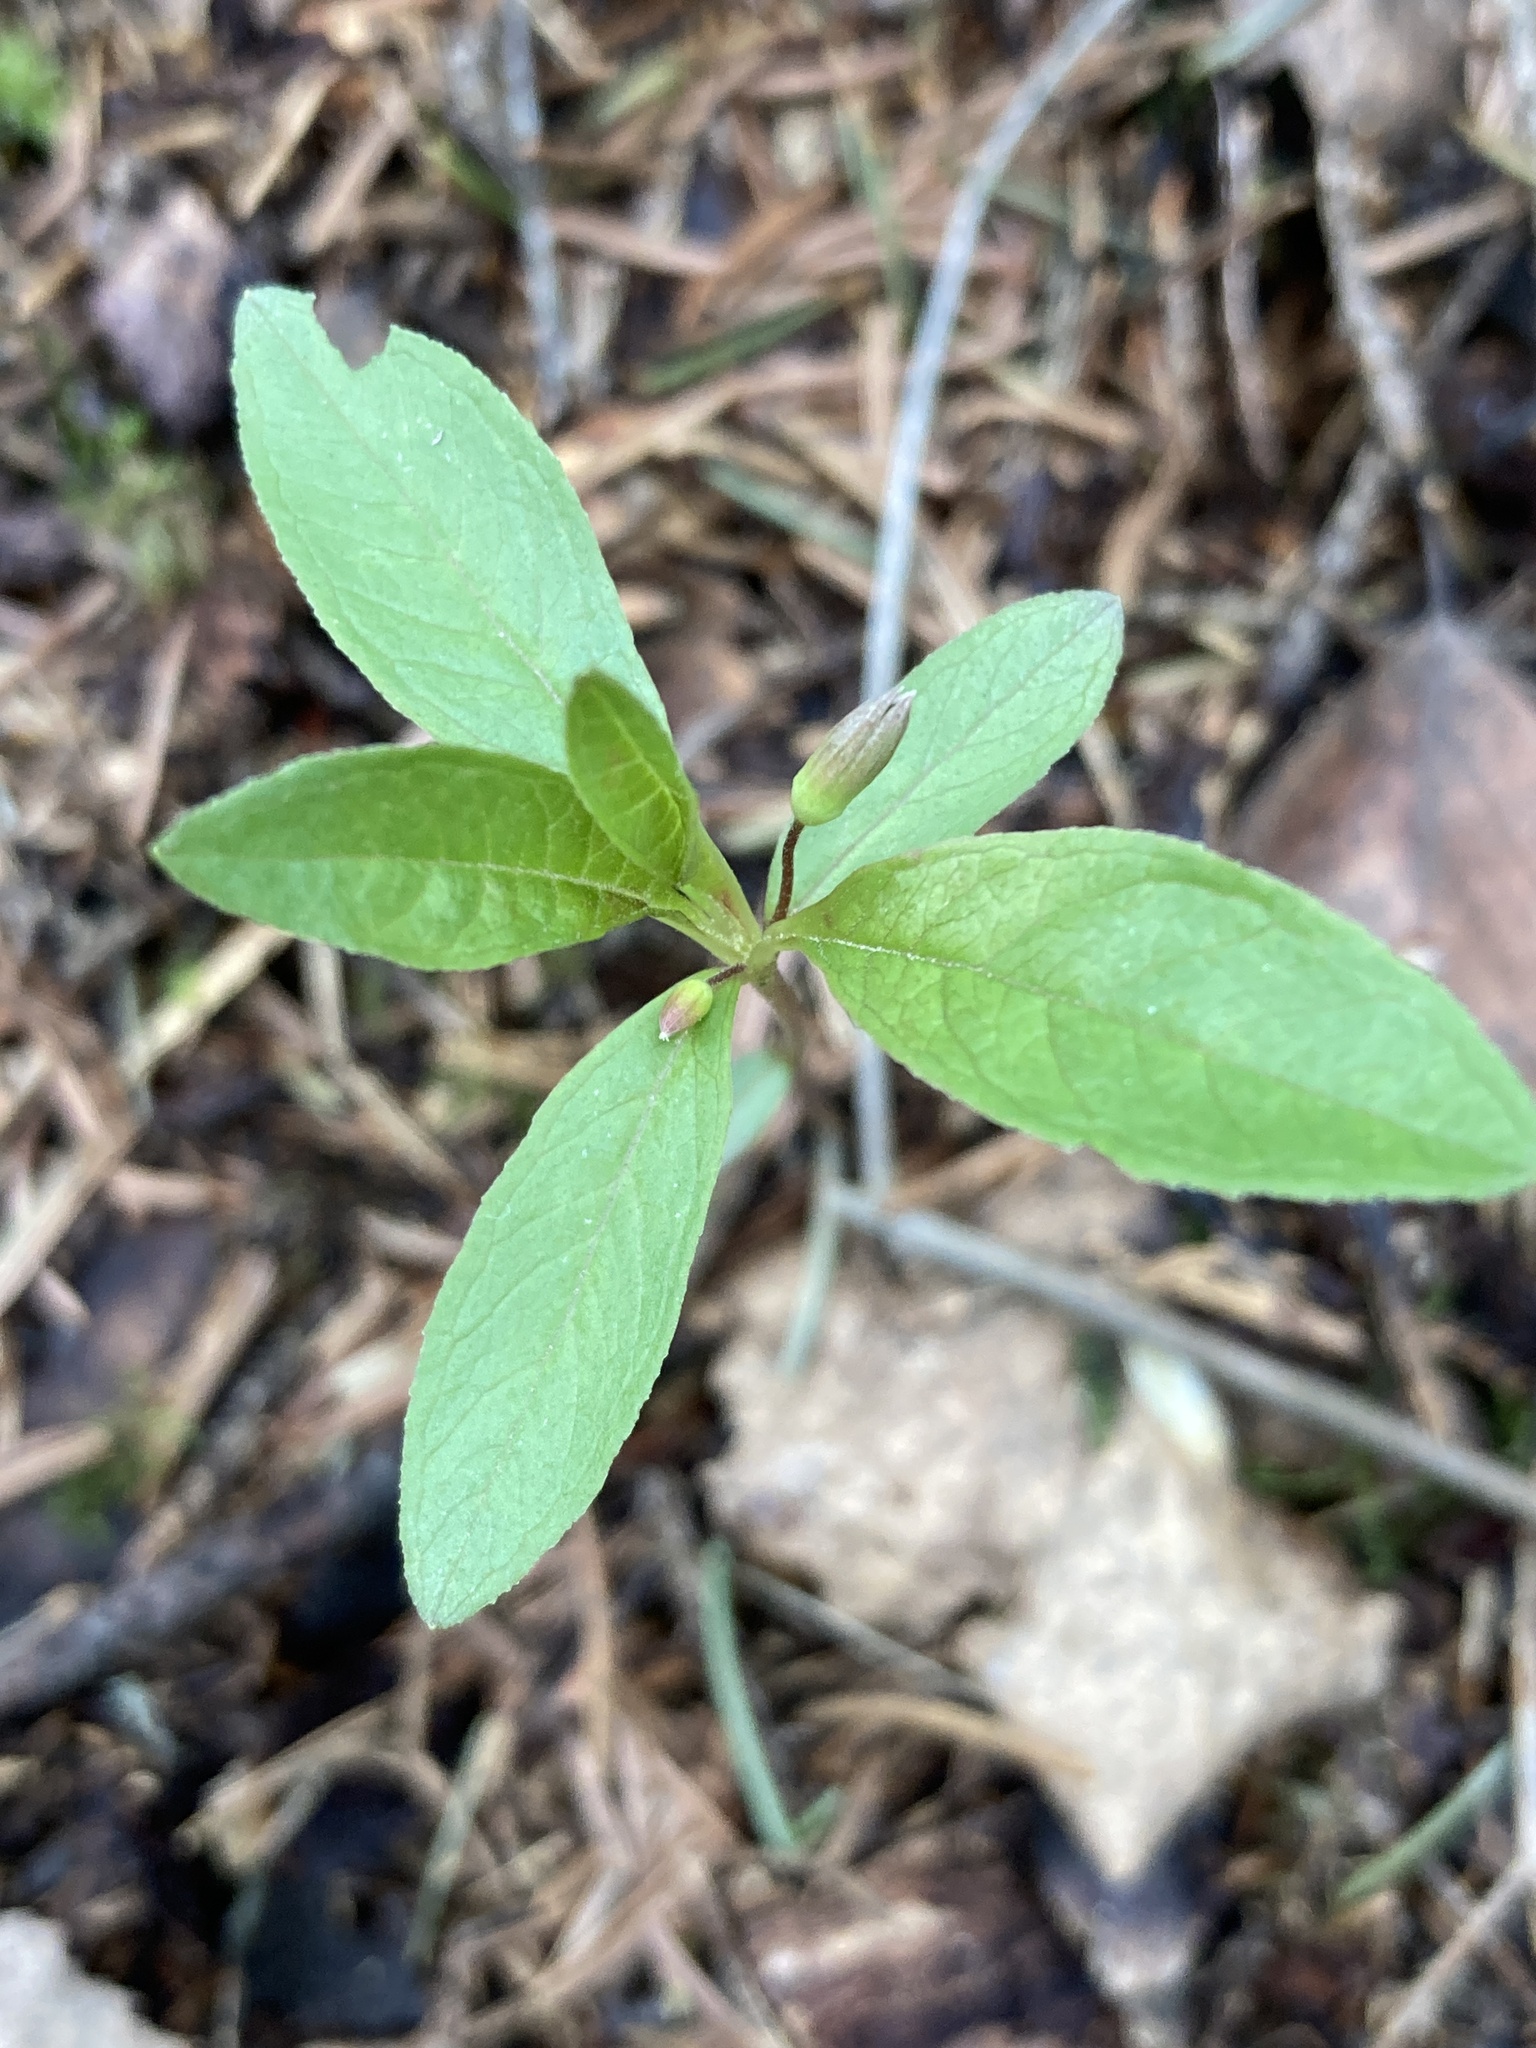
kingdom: Plantae
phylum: Tracheophyta
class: Magnoliopsida
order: Ericales
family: Primulaceae
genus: Lysimachia
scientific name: Lysimachia europaea
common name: Arctic starflower
